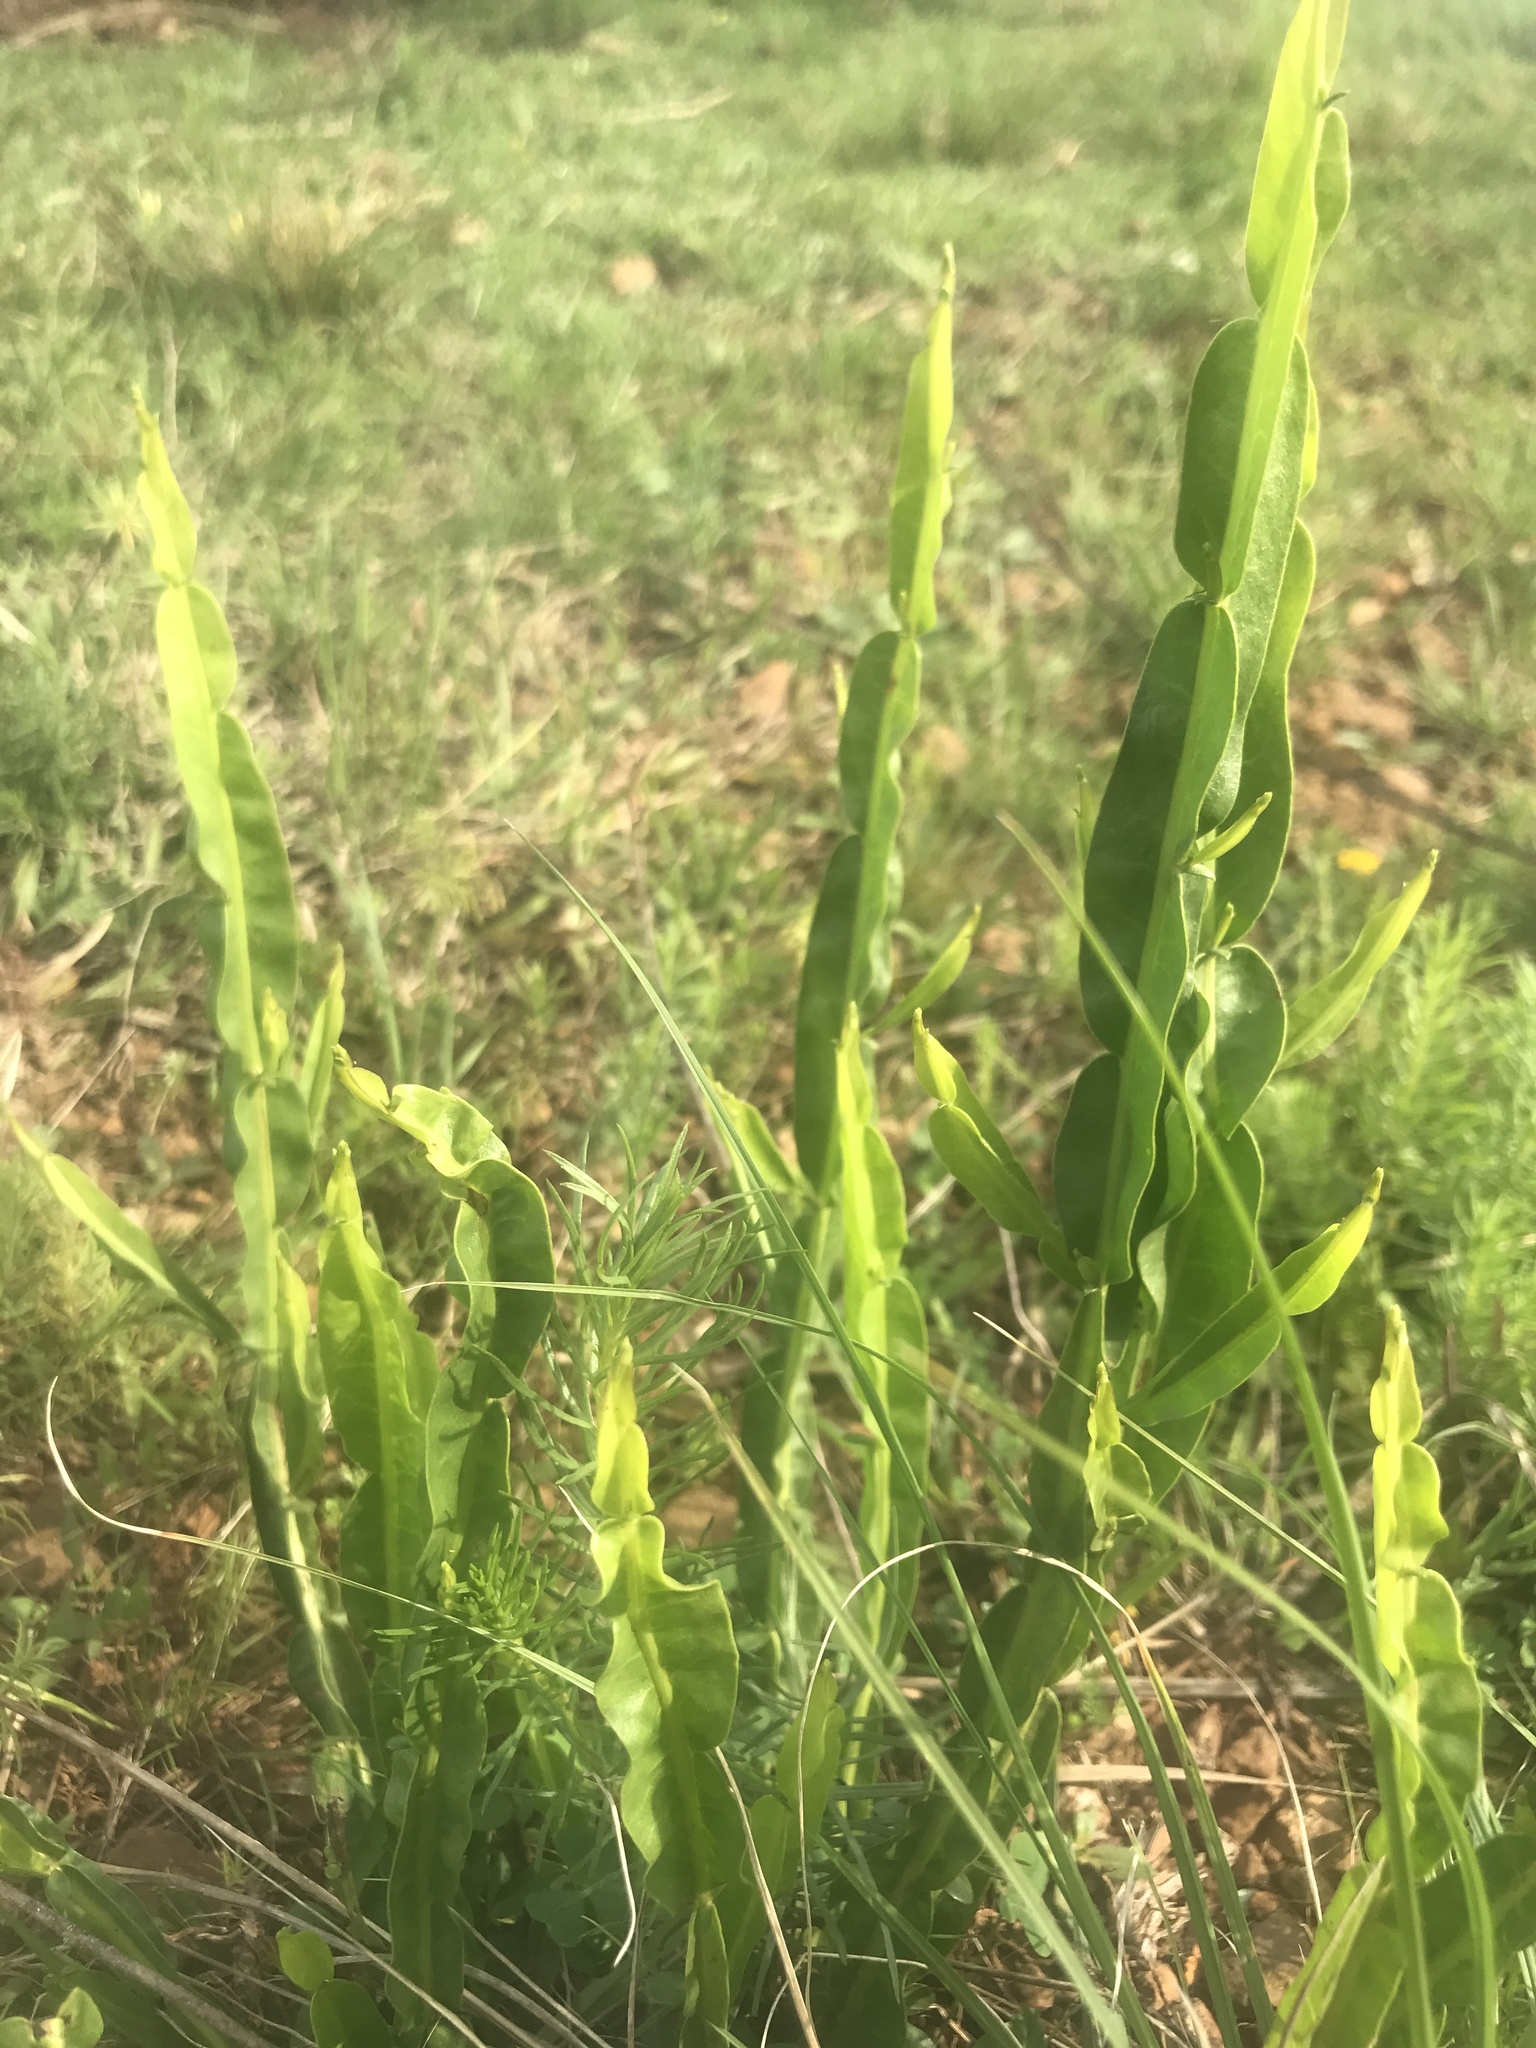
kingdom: Plantae
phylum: Tracheophyta
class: Magnoliopsida
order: Asterales
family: Asteraceae
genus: Baccharis
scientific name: Baccharis trimera
